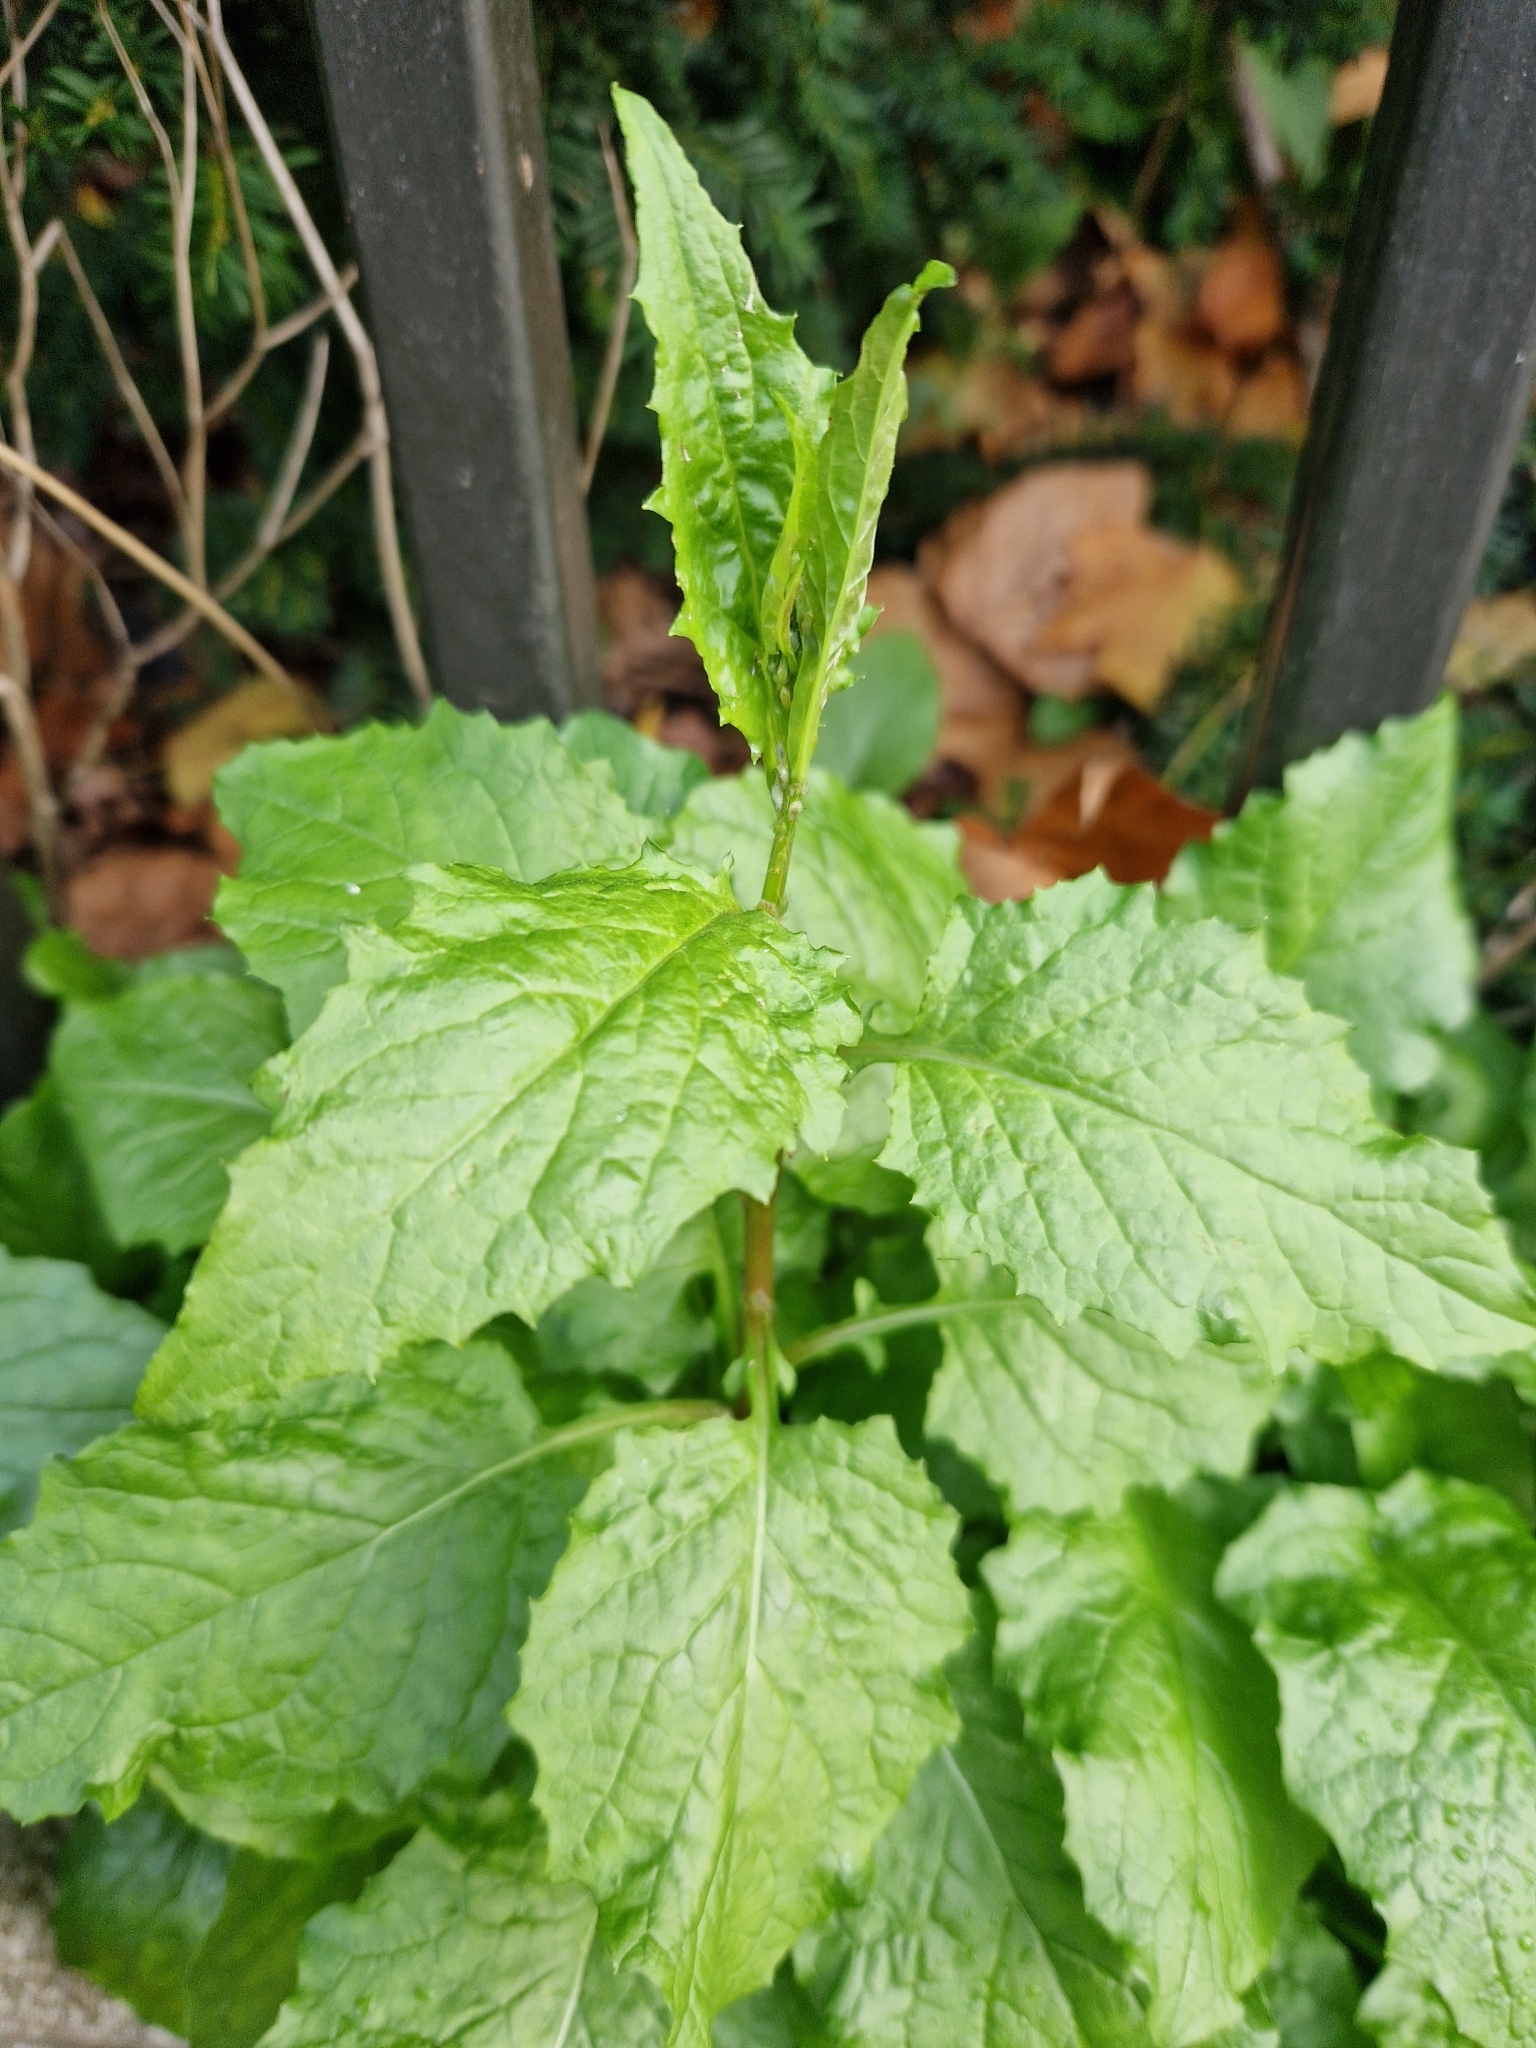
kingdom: Plantae
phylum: Tracheophyta
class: Magnoliopsida
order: Asterales
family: Asteraceae
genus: Lapsana
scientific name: Lapsana communis
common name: Nipplewort
